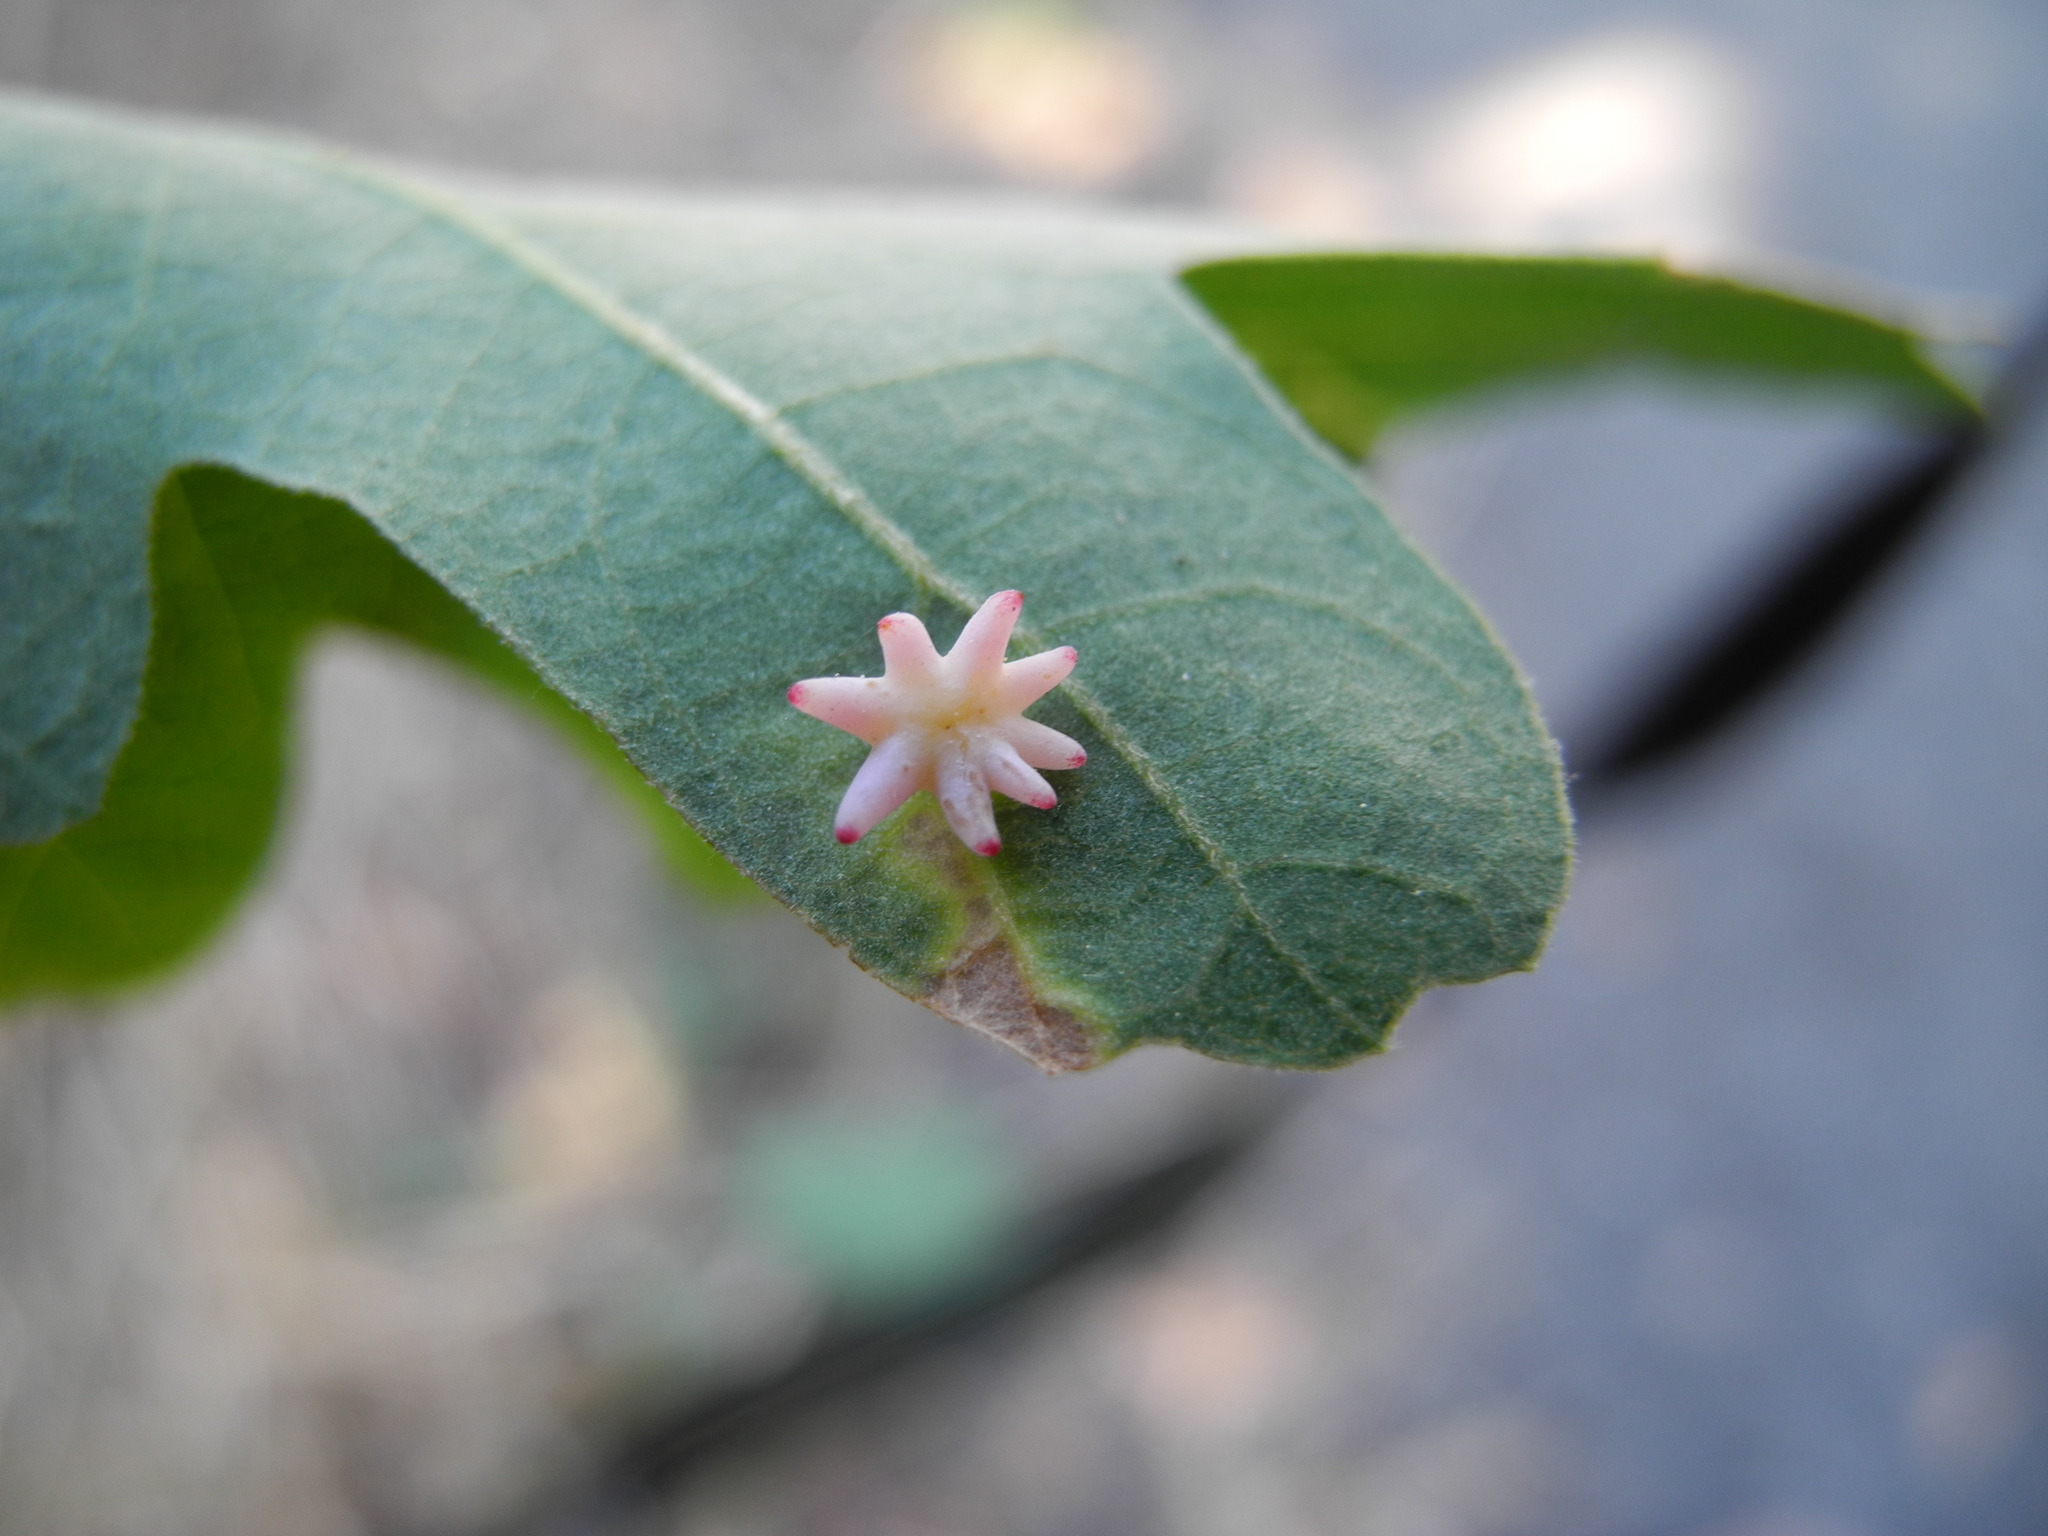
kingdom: Animalia
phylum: Arthropoda
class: Insecta
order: Hymenoptera
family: Cynipidae
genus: Cynips
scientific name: Cynips douglasi
